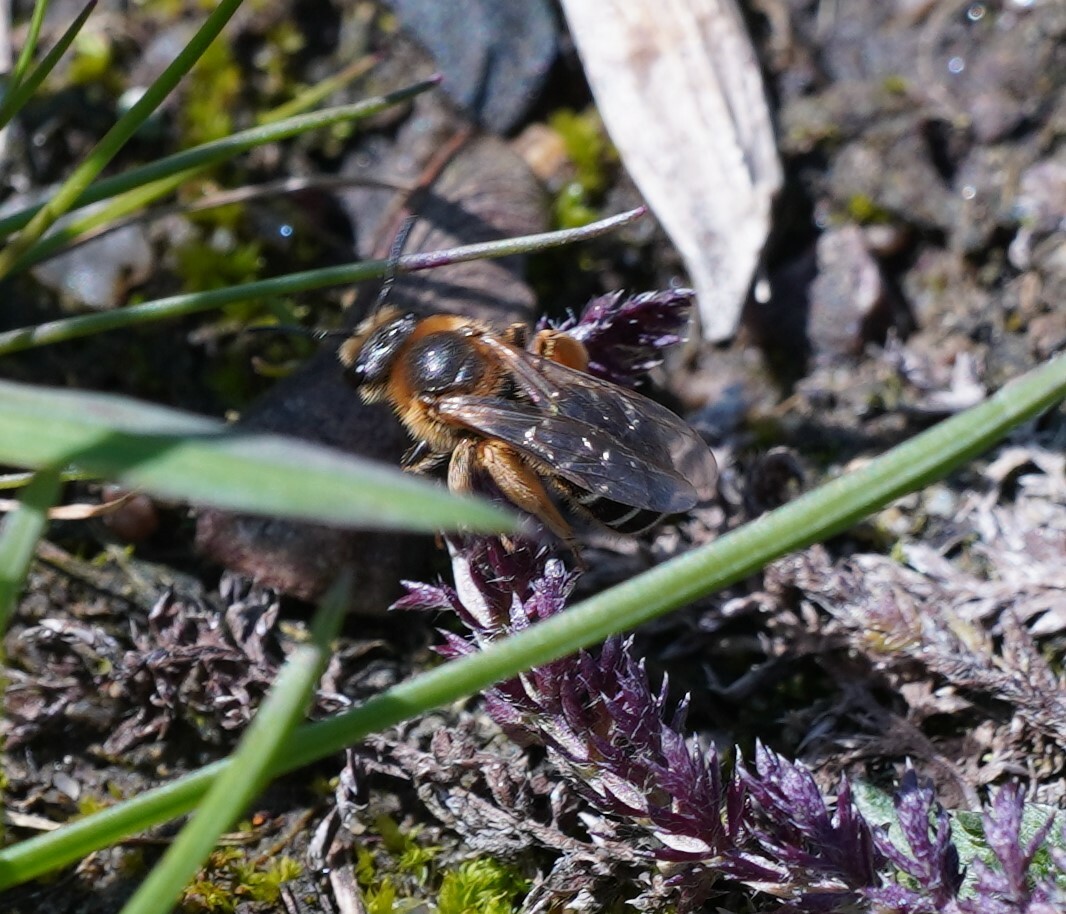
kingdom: Animalia
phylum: Arthropoda
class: Insecta
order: Hymenoptera
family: Halictidae
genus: Halictus
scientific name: Halictus rubicundus
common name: Orange-legged furrow bee
